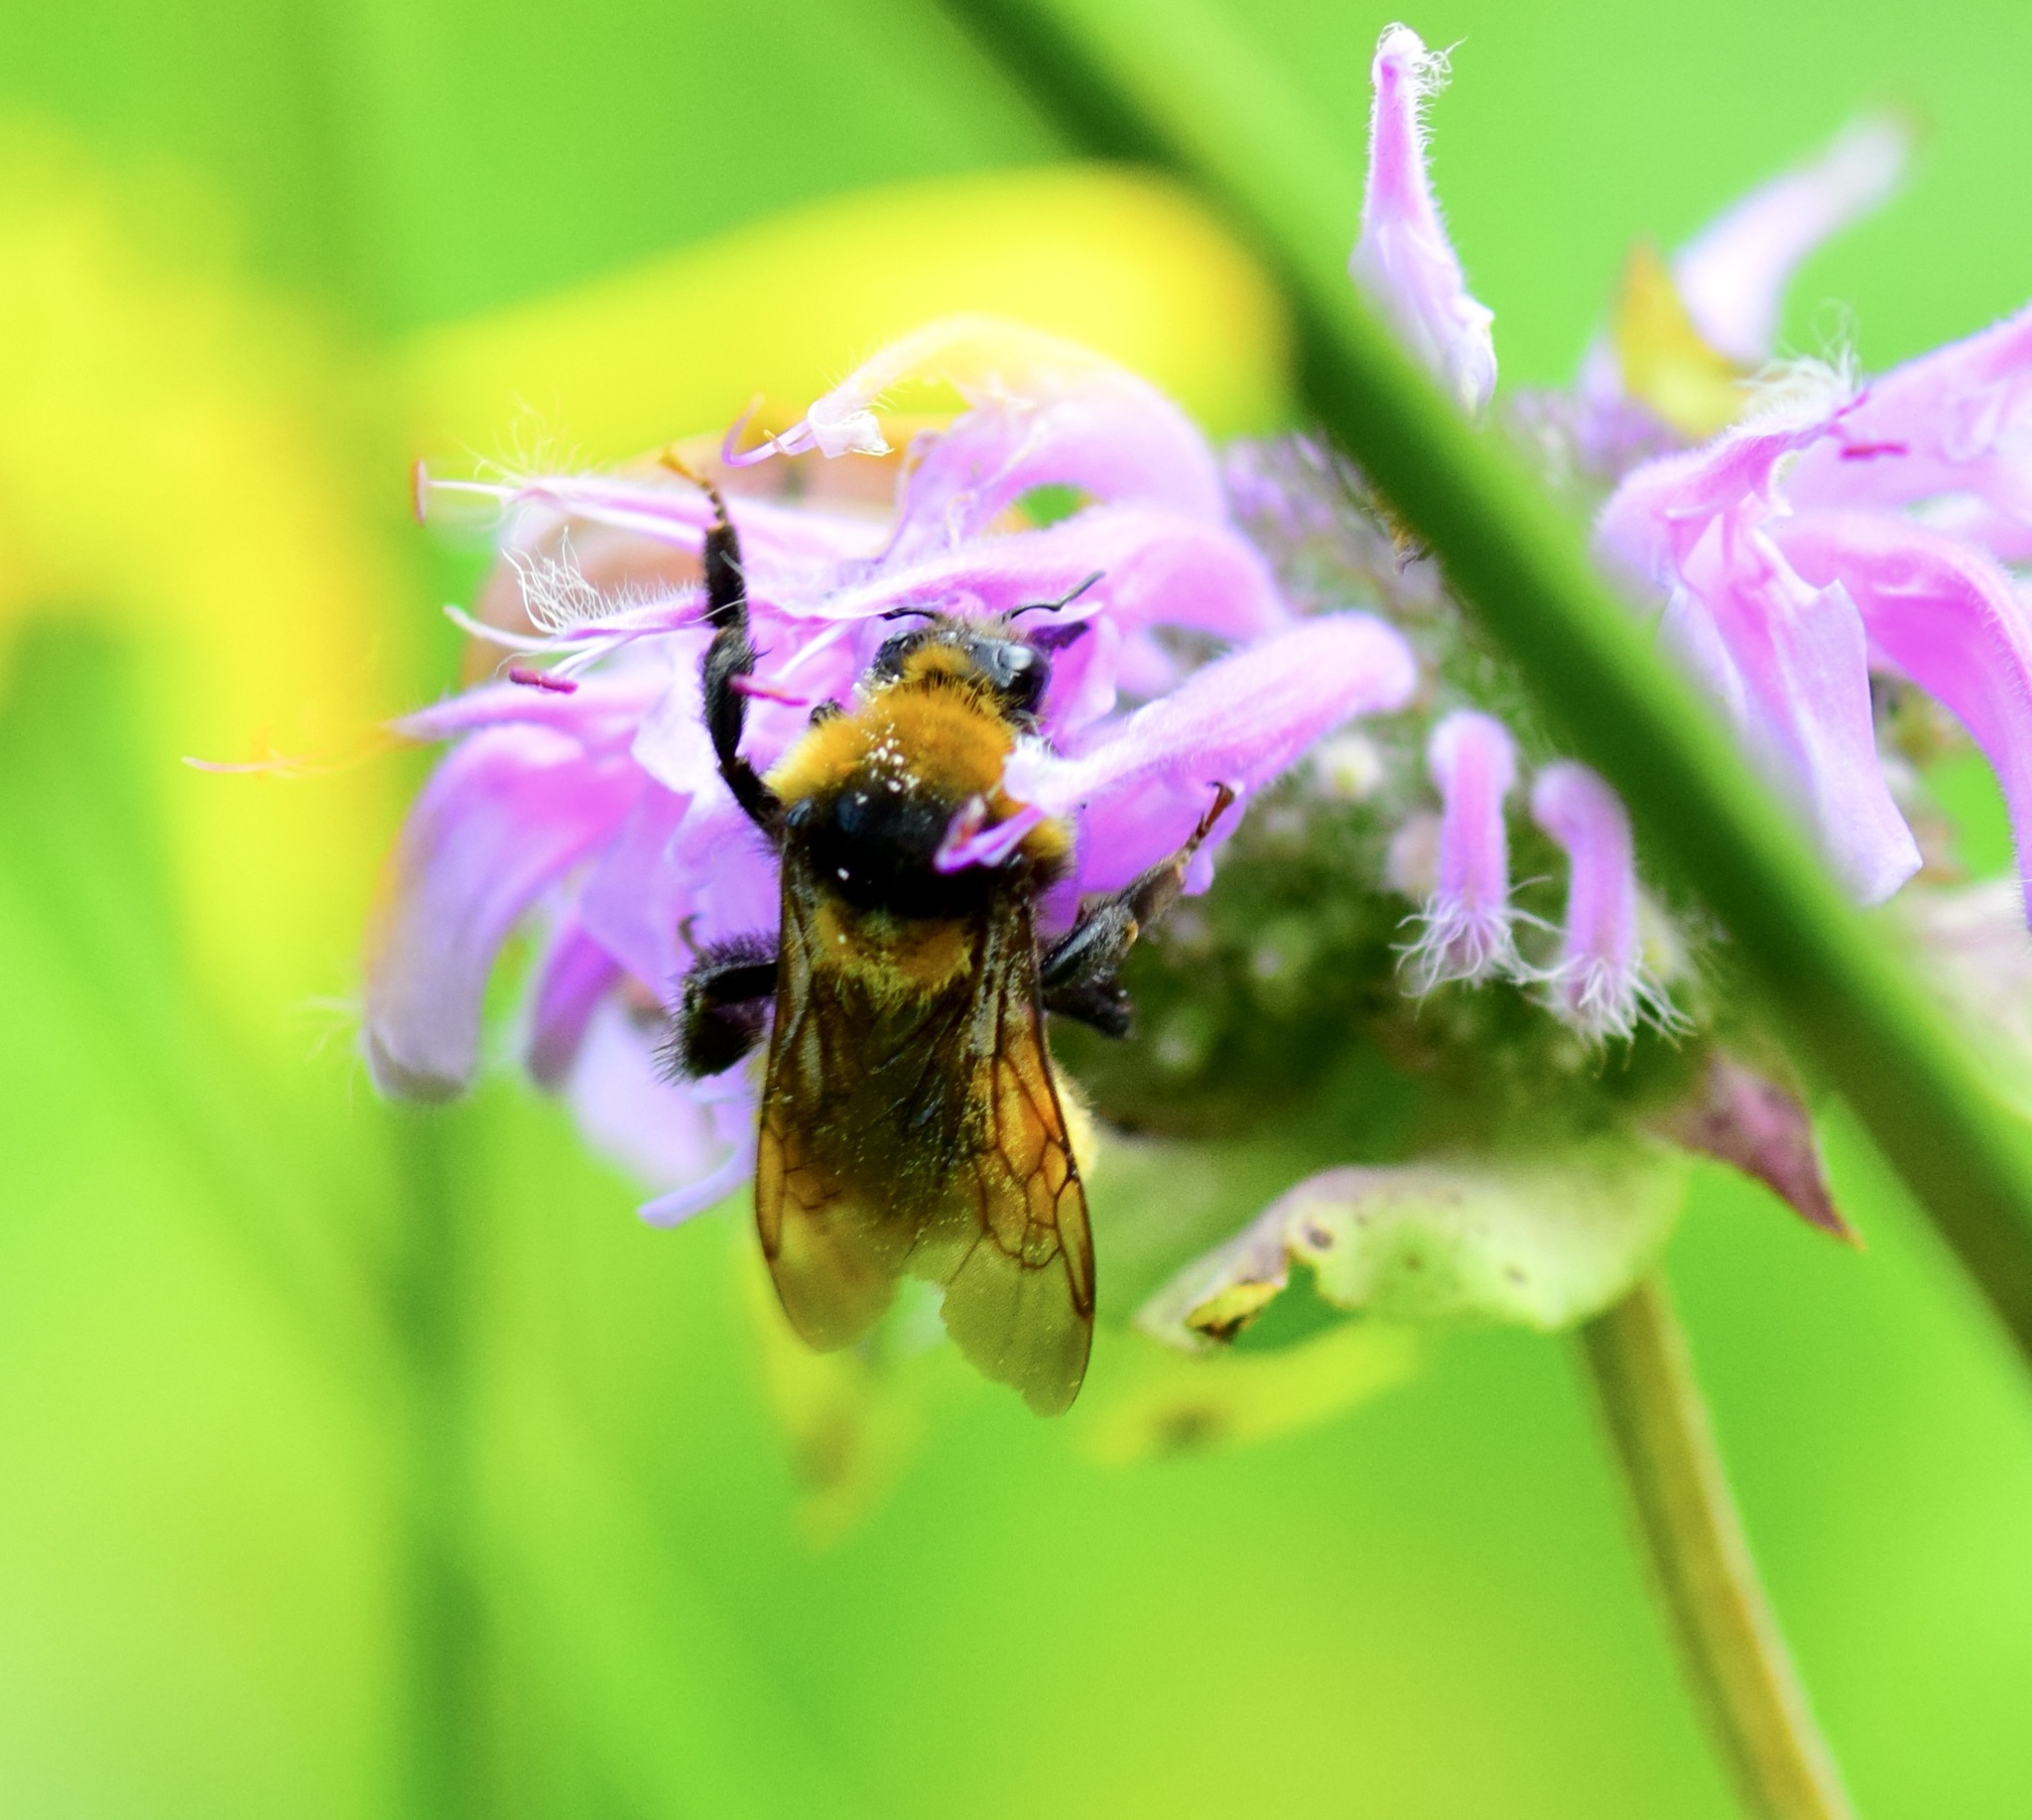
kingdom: Animalia
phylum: Arthropoda
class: Insecta
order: Hymenoptera
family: Apidae
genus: Bombus
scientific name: Bombus borealis
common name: Northern amber bumble bee
